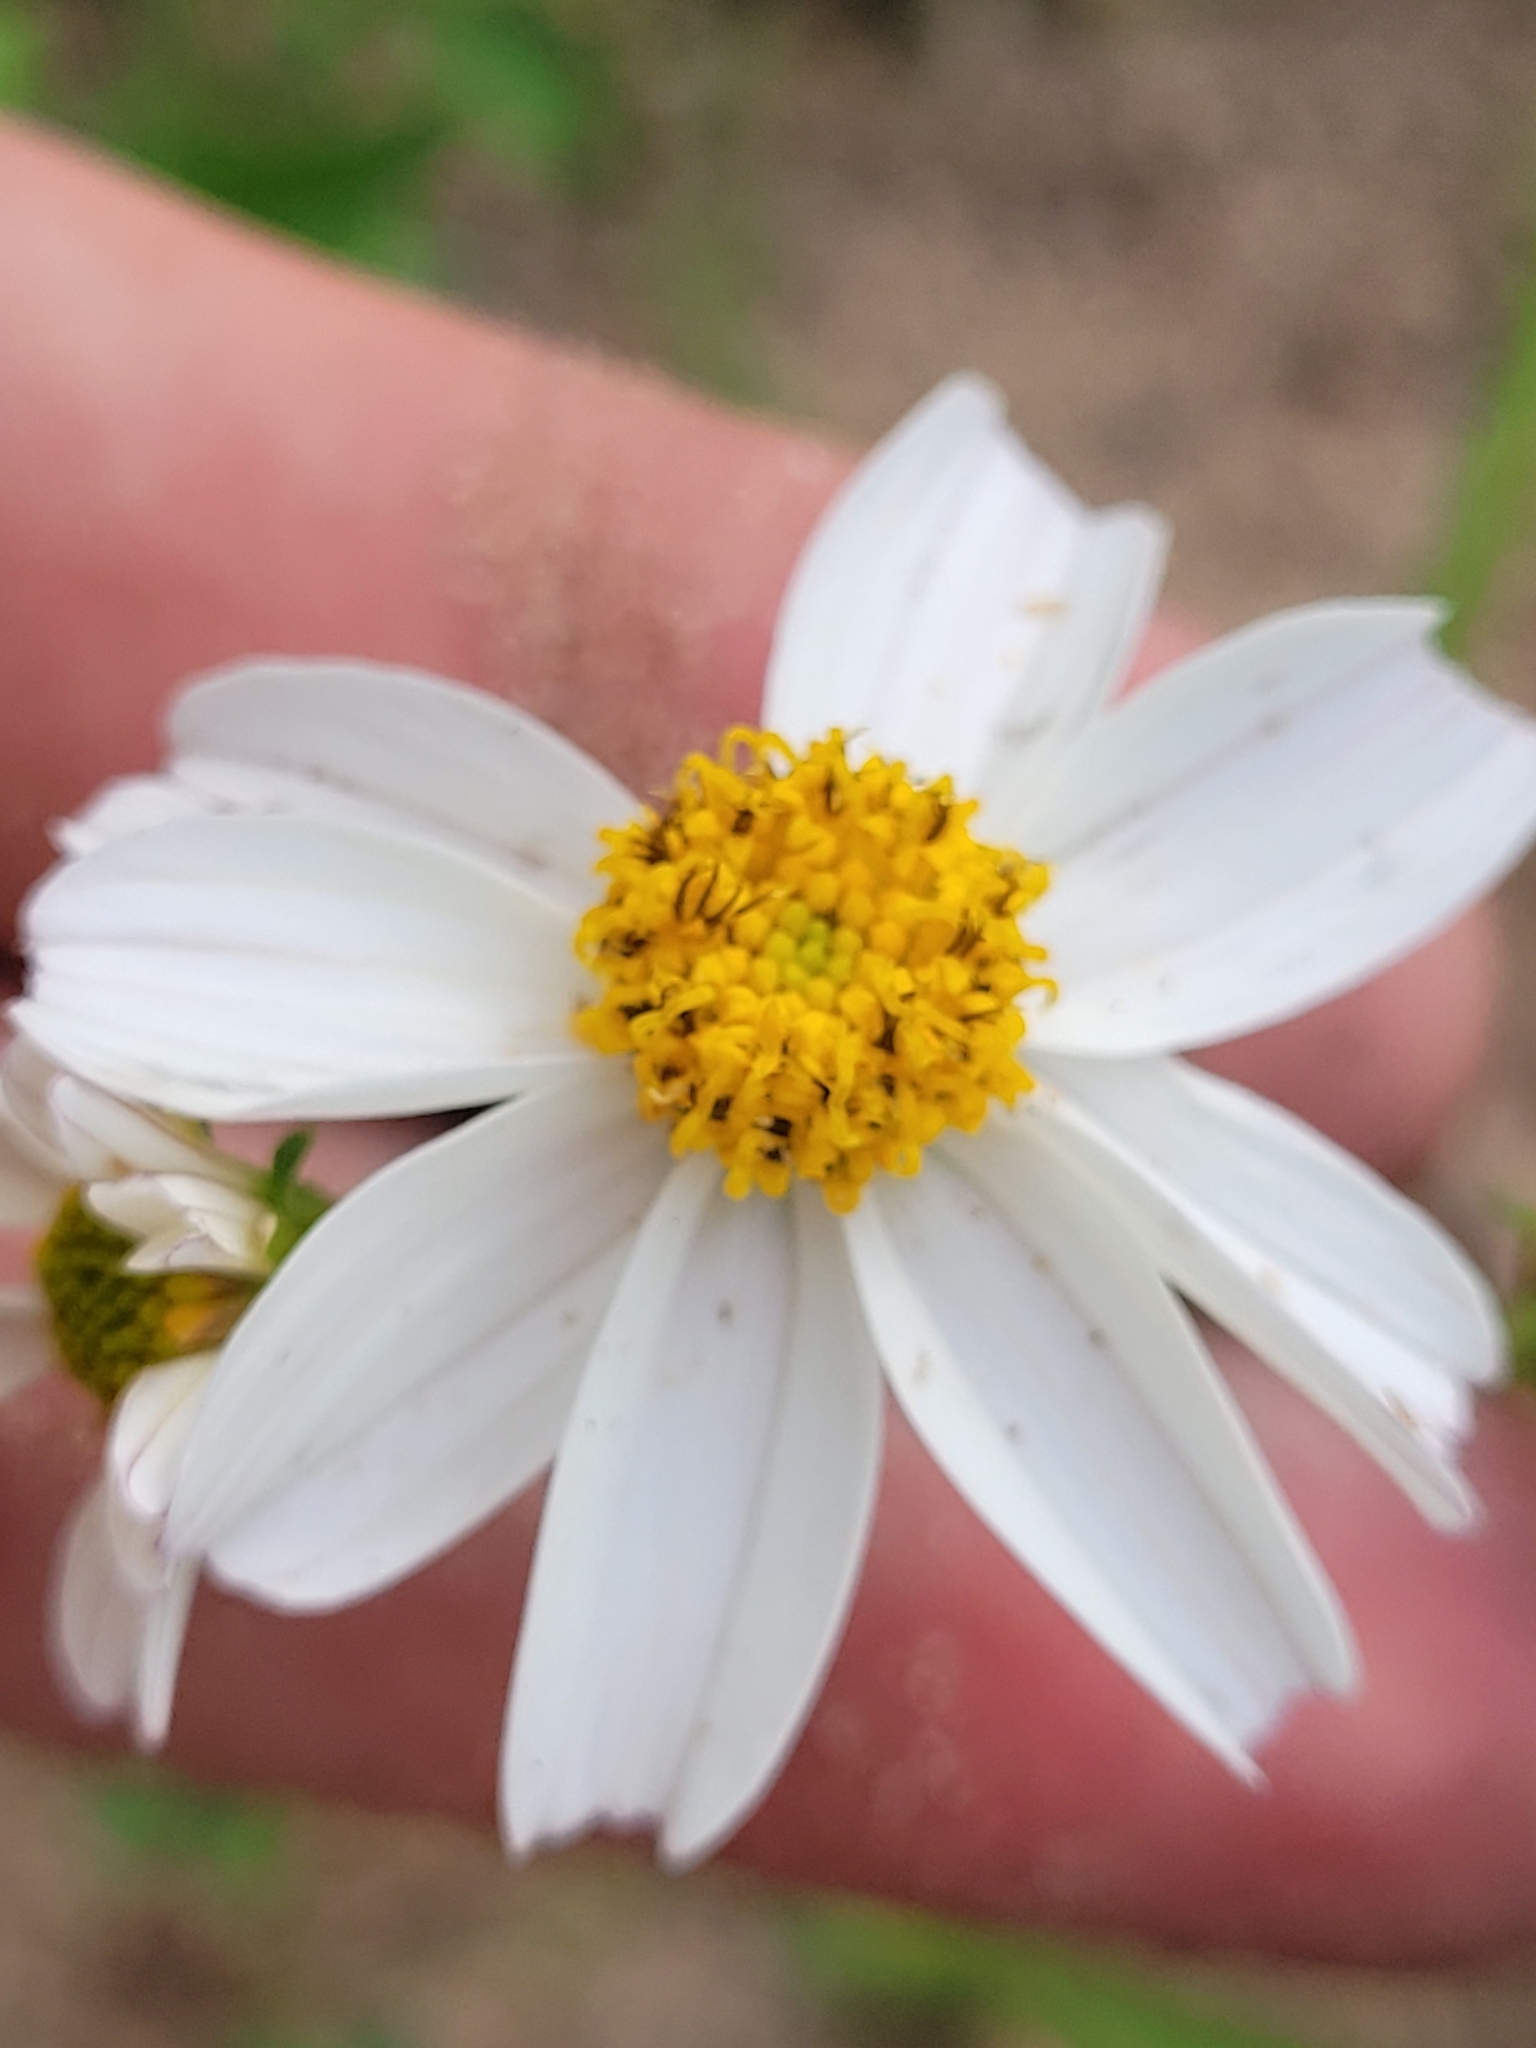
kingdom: Plantae
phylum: Tracheophyta
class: Magnoliopsida
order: Asterales
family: Asteraceae
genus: Bidens
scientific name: Bidens alba
